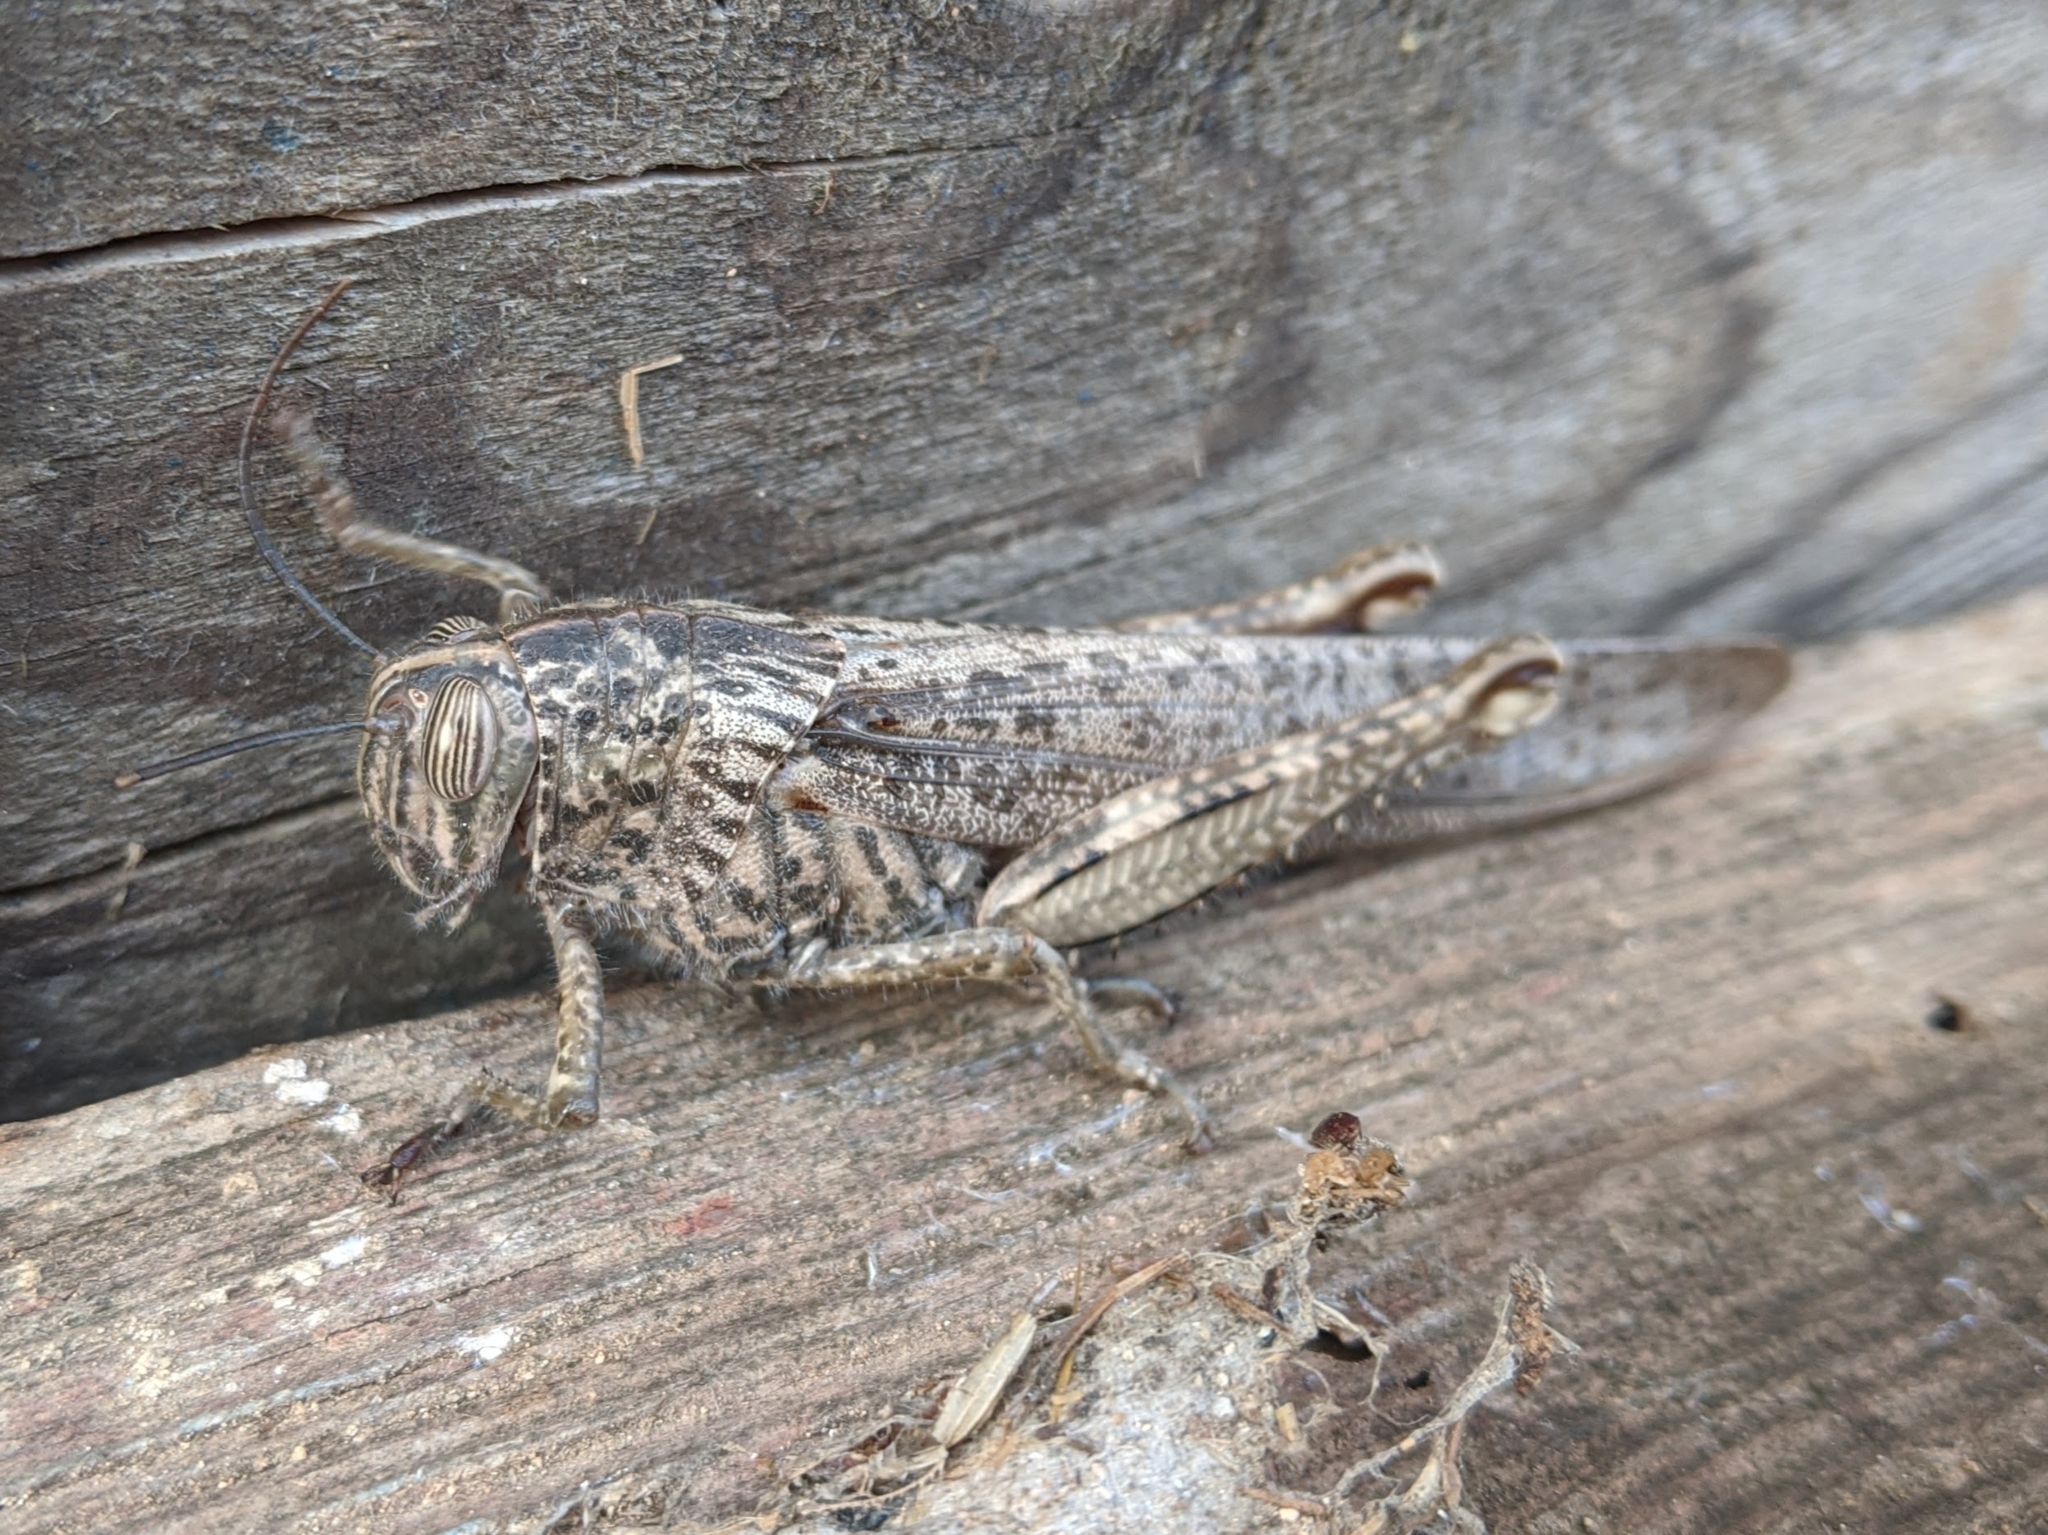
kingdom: Animalia
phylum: Arthropoda
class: Insecta
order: Orthoptera
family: Acrididae
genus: Anacridium
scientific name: Anacridium aegyptium
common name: Egyptian grasshopper
